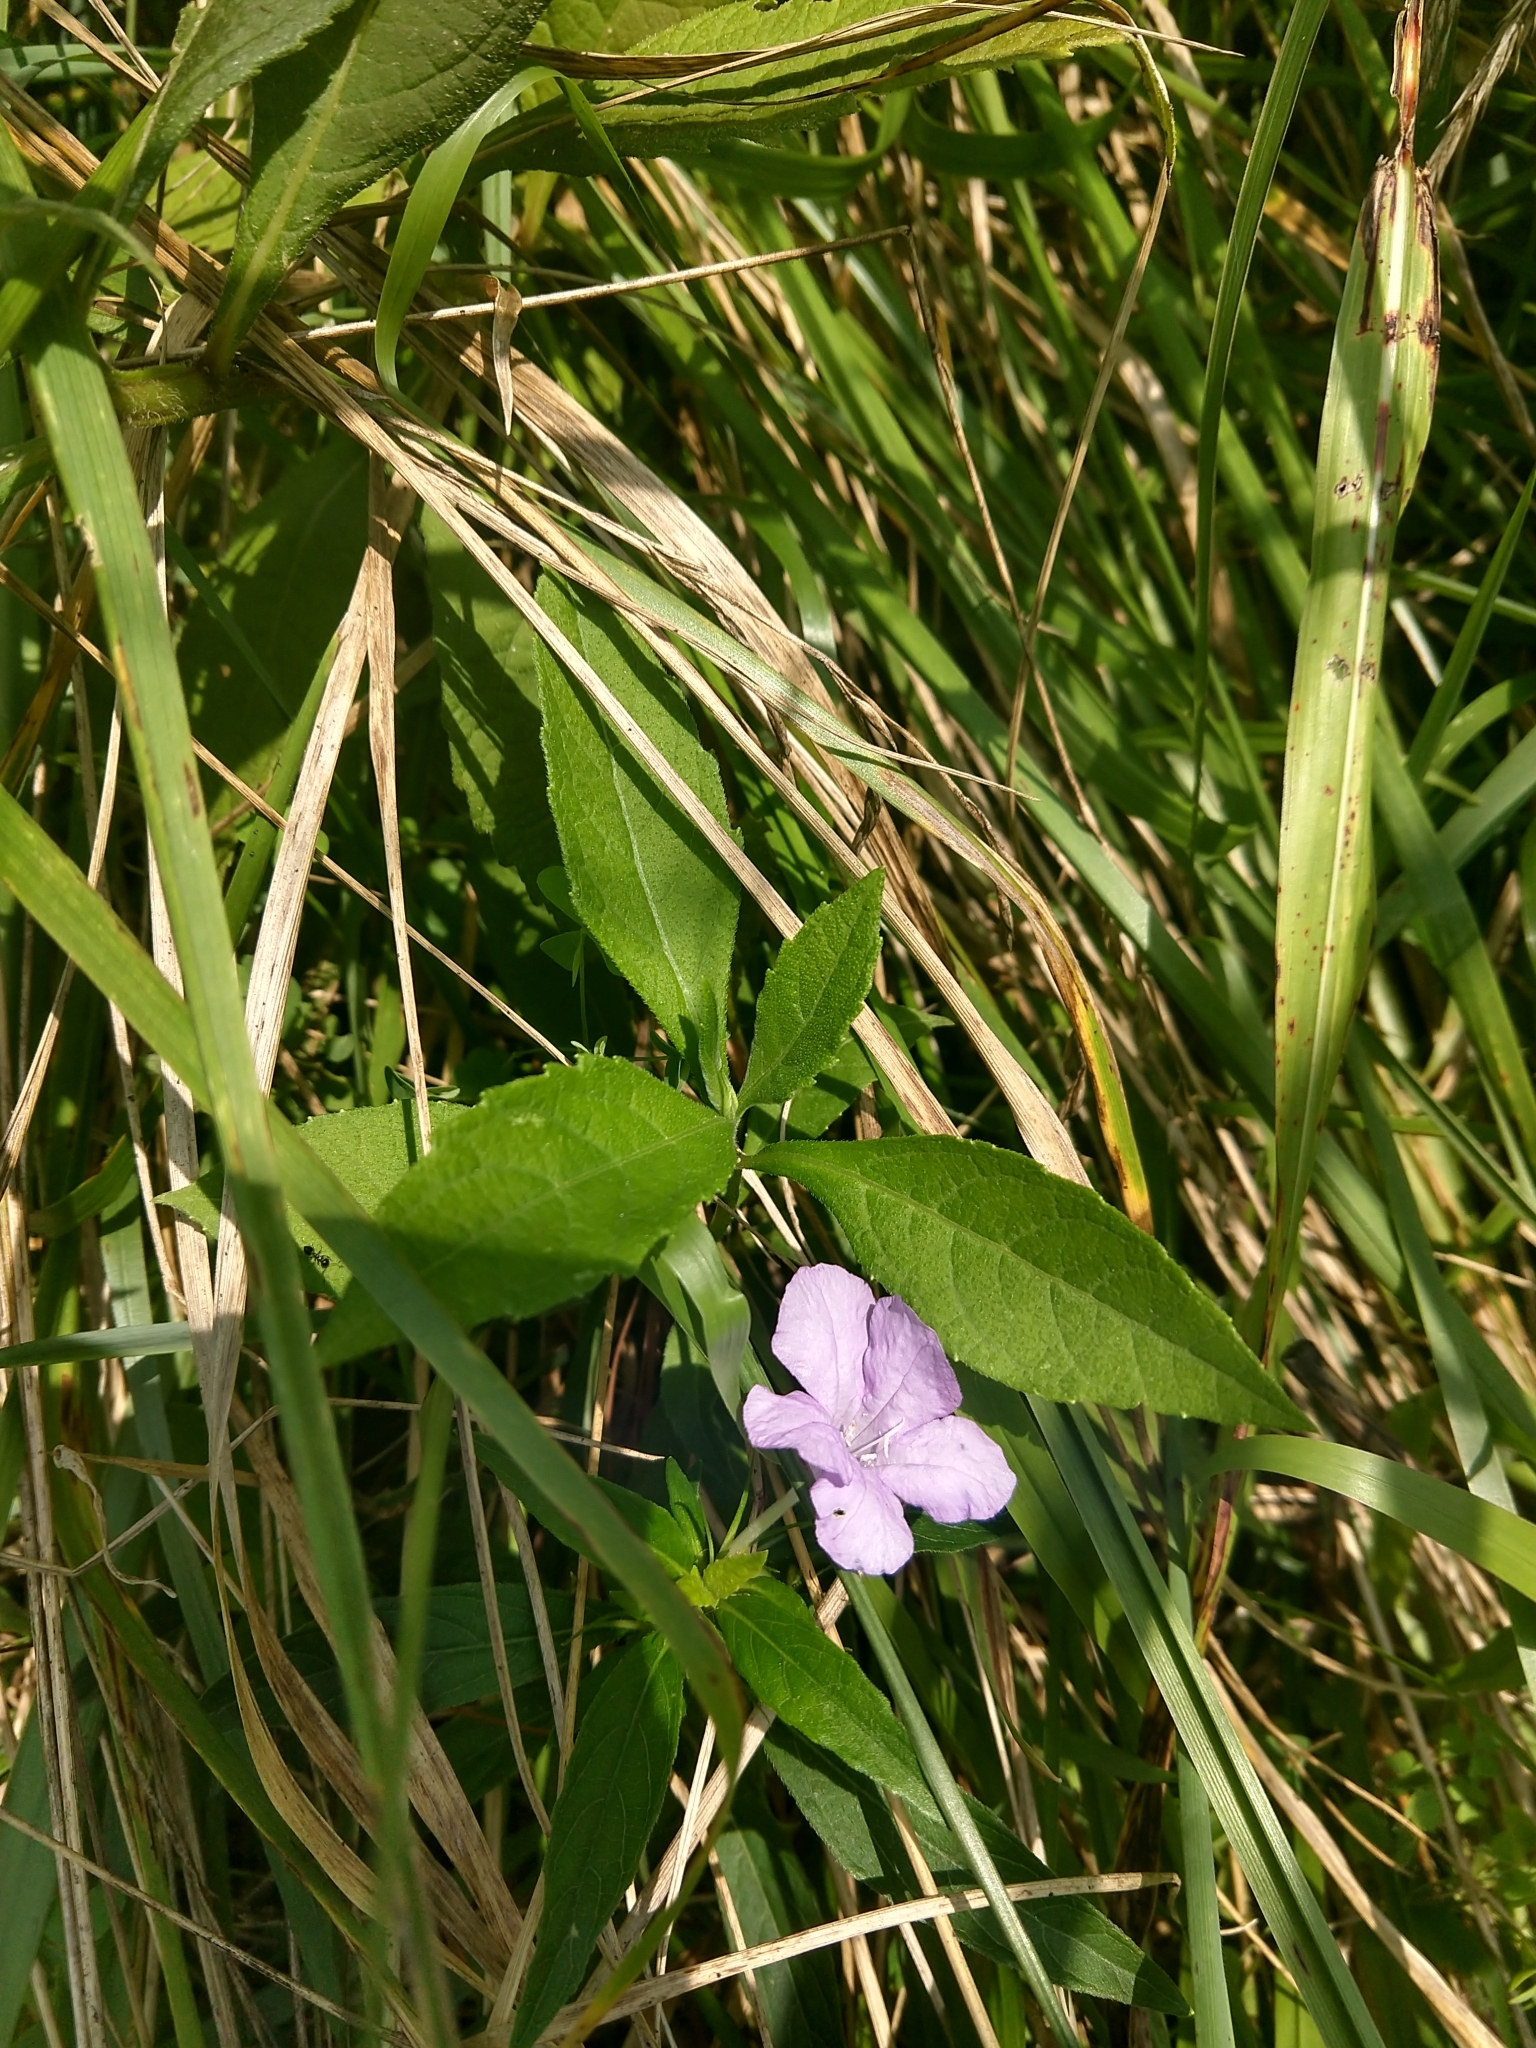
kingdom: Plantae
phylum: Tracheophyta
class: Magnoliopsida
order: Lamiales
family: Acanthaceae
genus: Ruellia
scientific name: Ruellia caroliniensis
